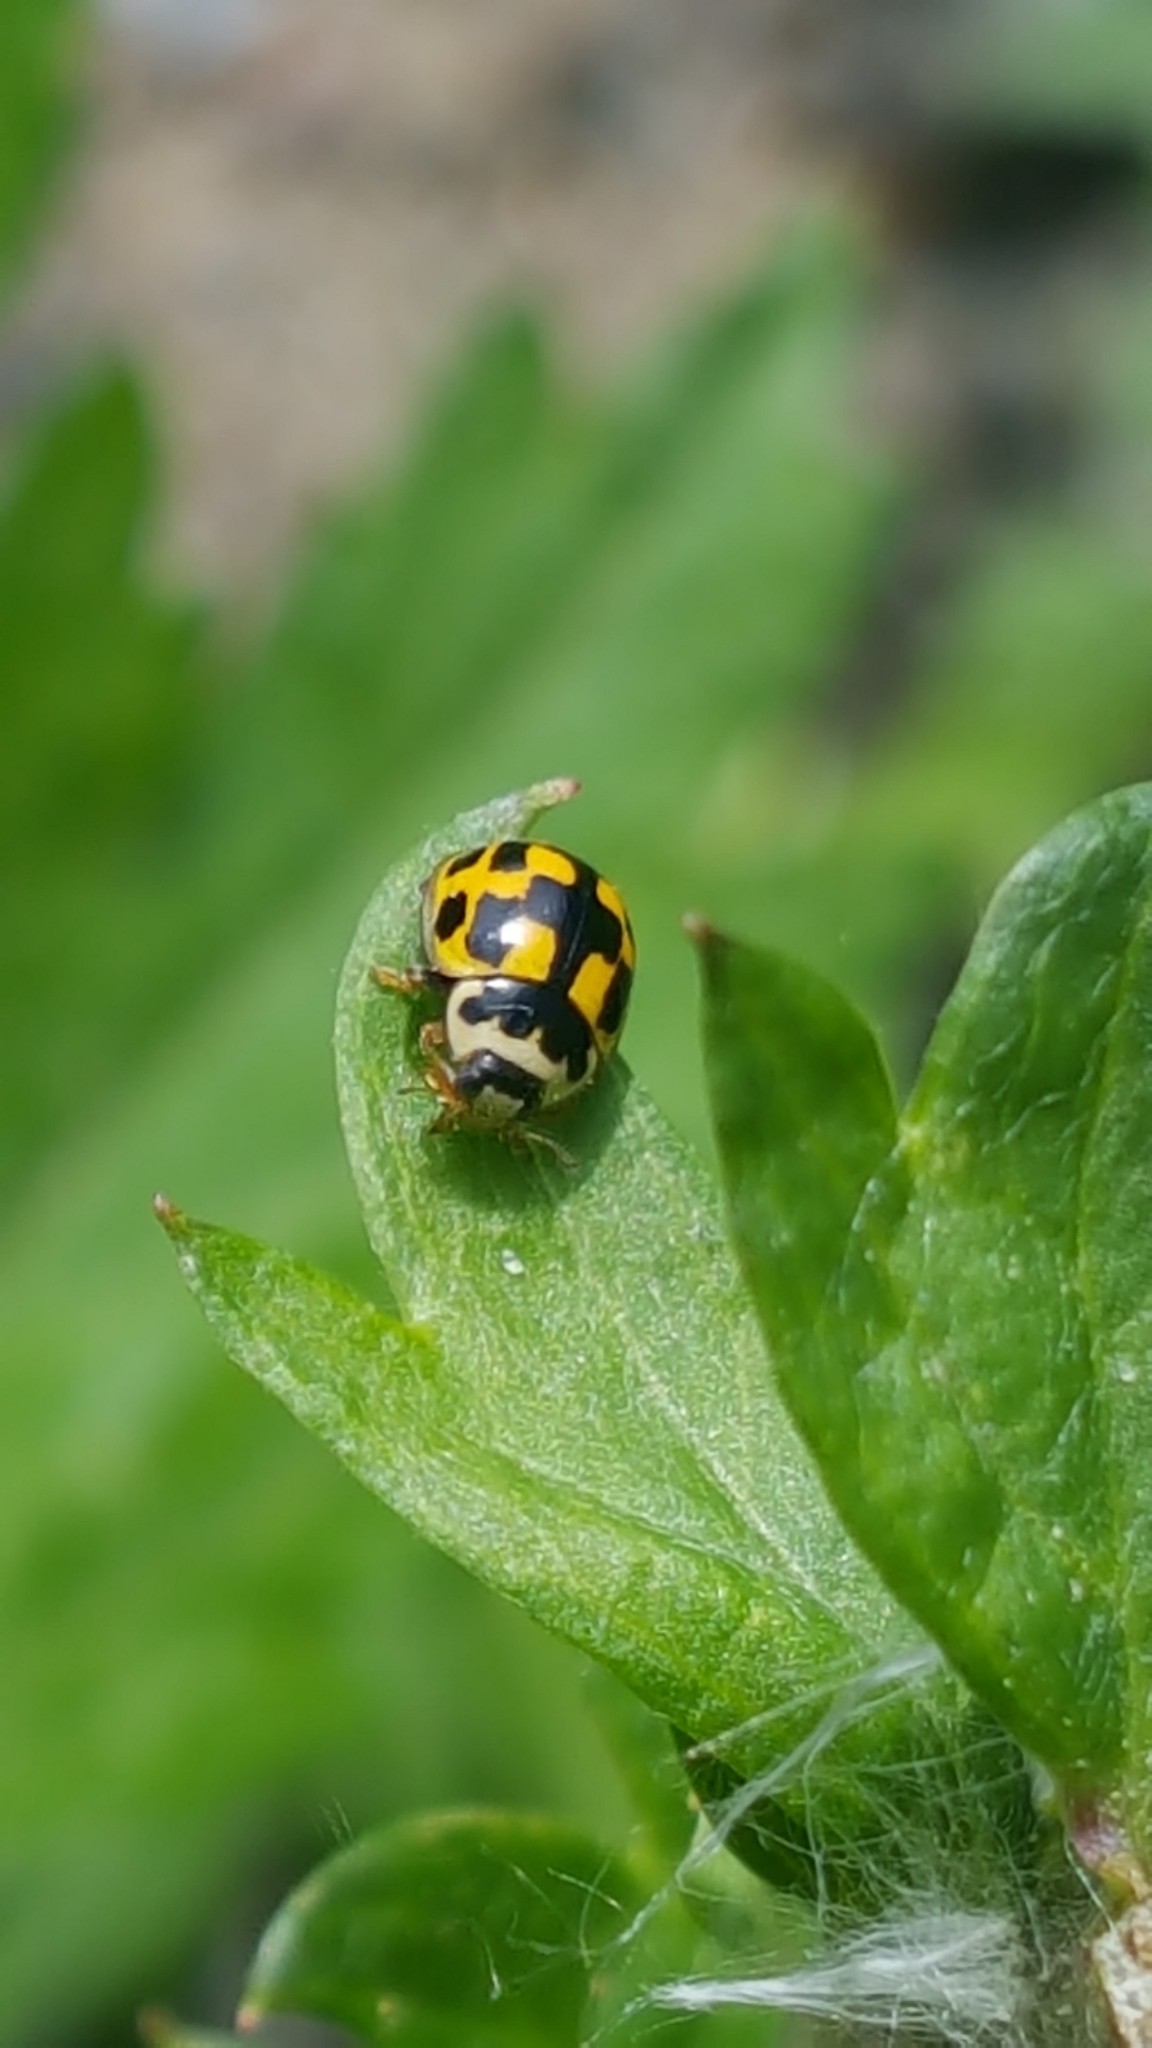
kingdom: Animalia
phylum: Arthropoda
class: Insecta
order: Coleoptera
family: Coccinellidae
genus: Propylaea
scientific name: Propylaea quatuordecimpunctata
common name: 14-spotted ladybird beetle
